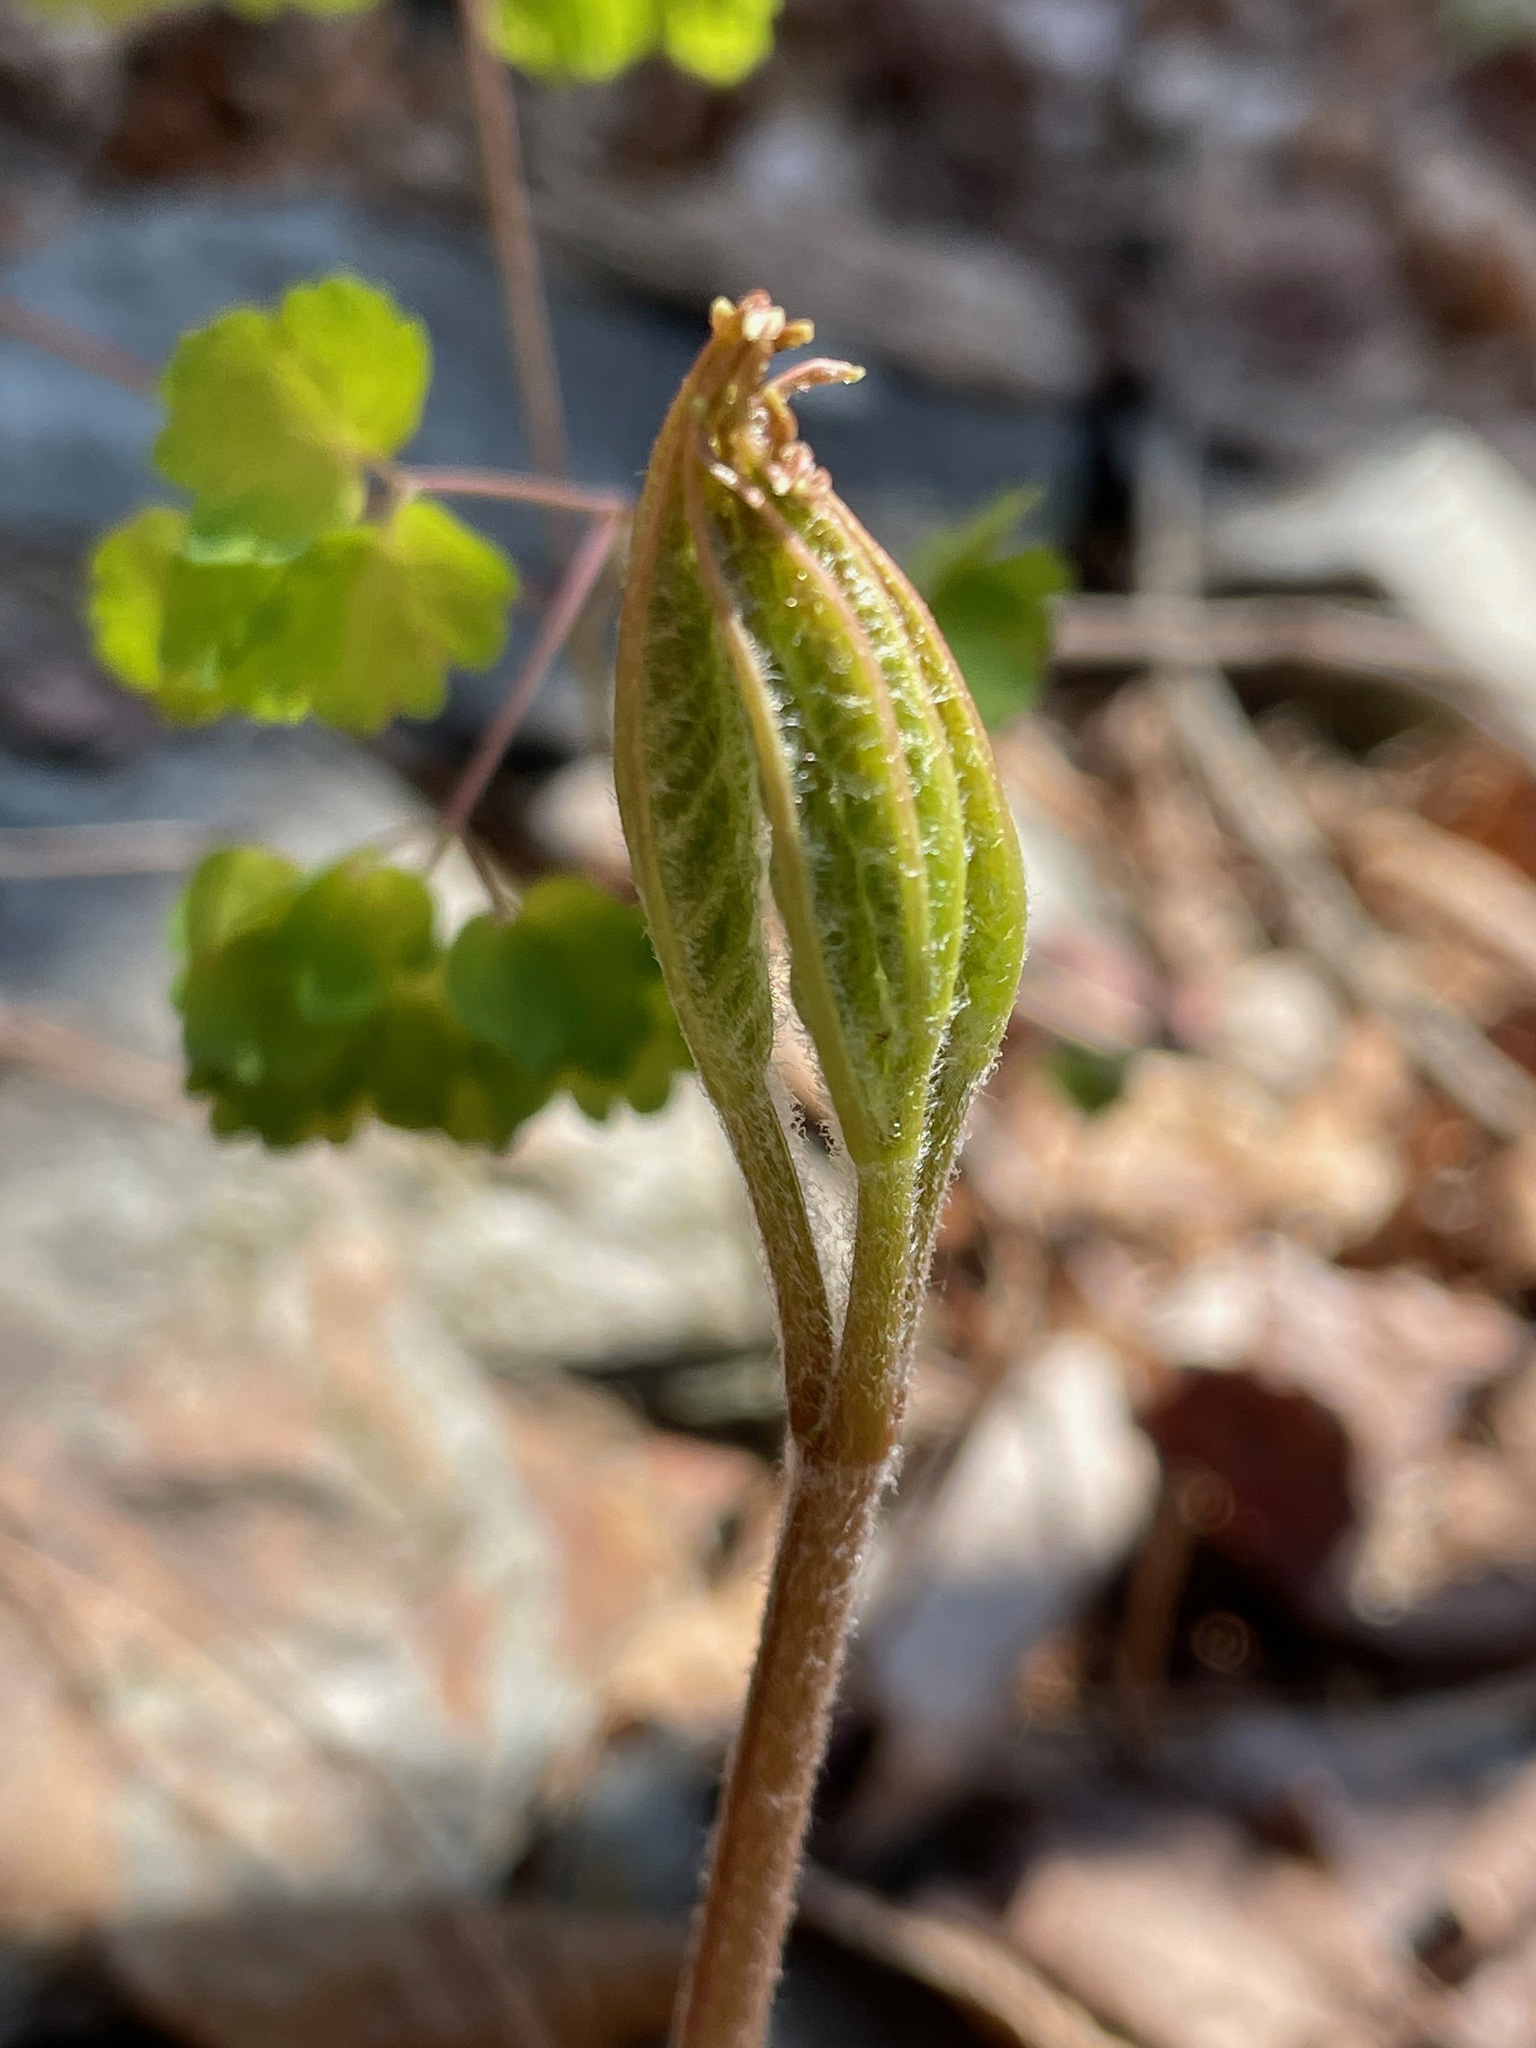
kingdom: Plantae
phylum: Tracheophyta
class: Magnoliopsida
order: Apiales
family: Araliaceae
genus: Aralia
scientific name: Aralia nudicaulis
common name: Wild sarsaparilla
